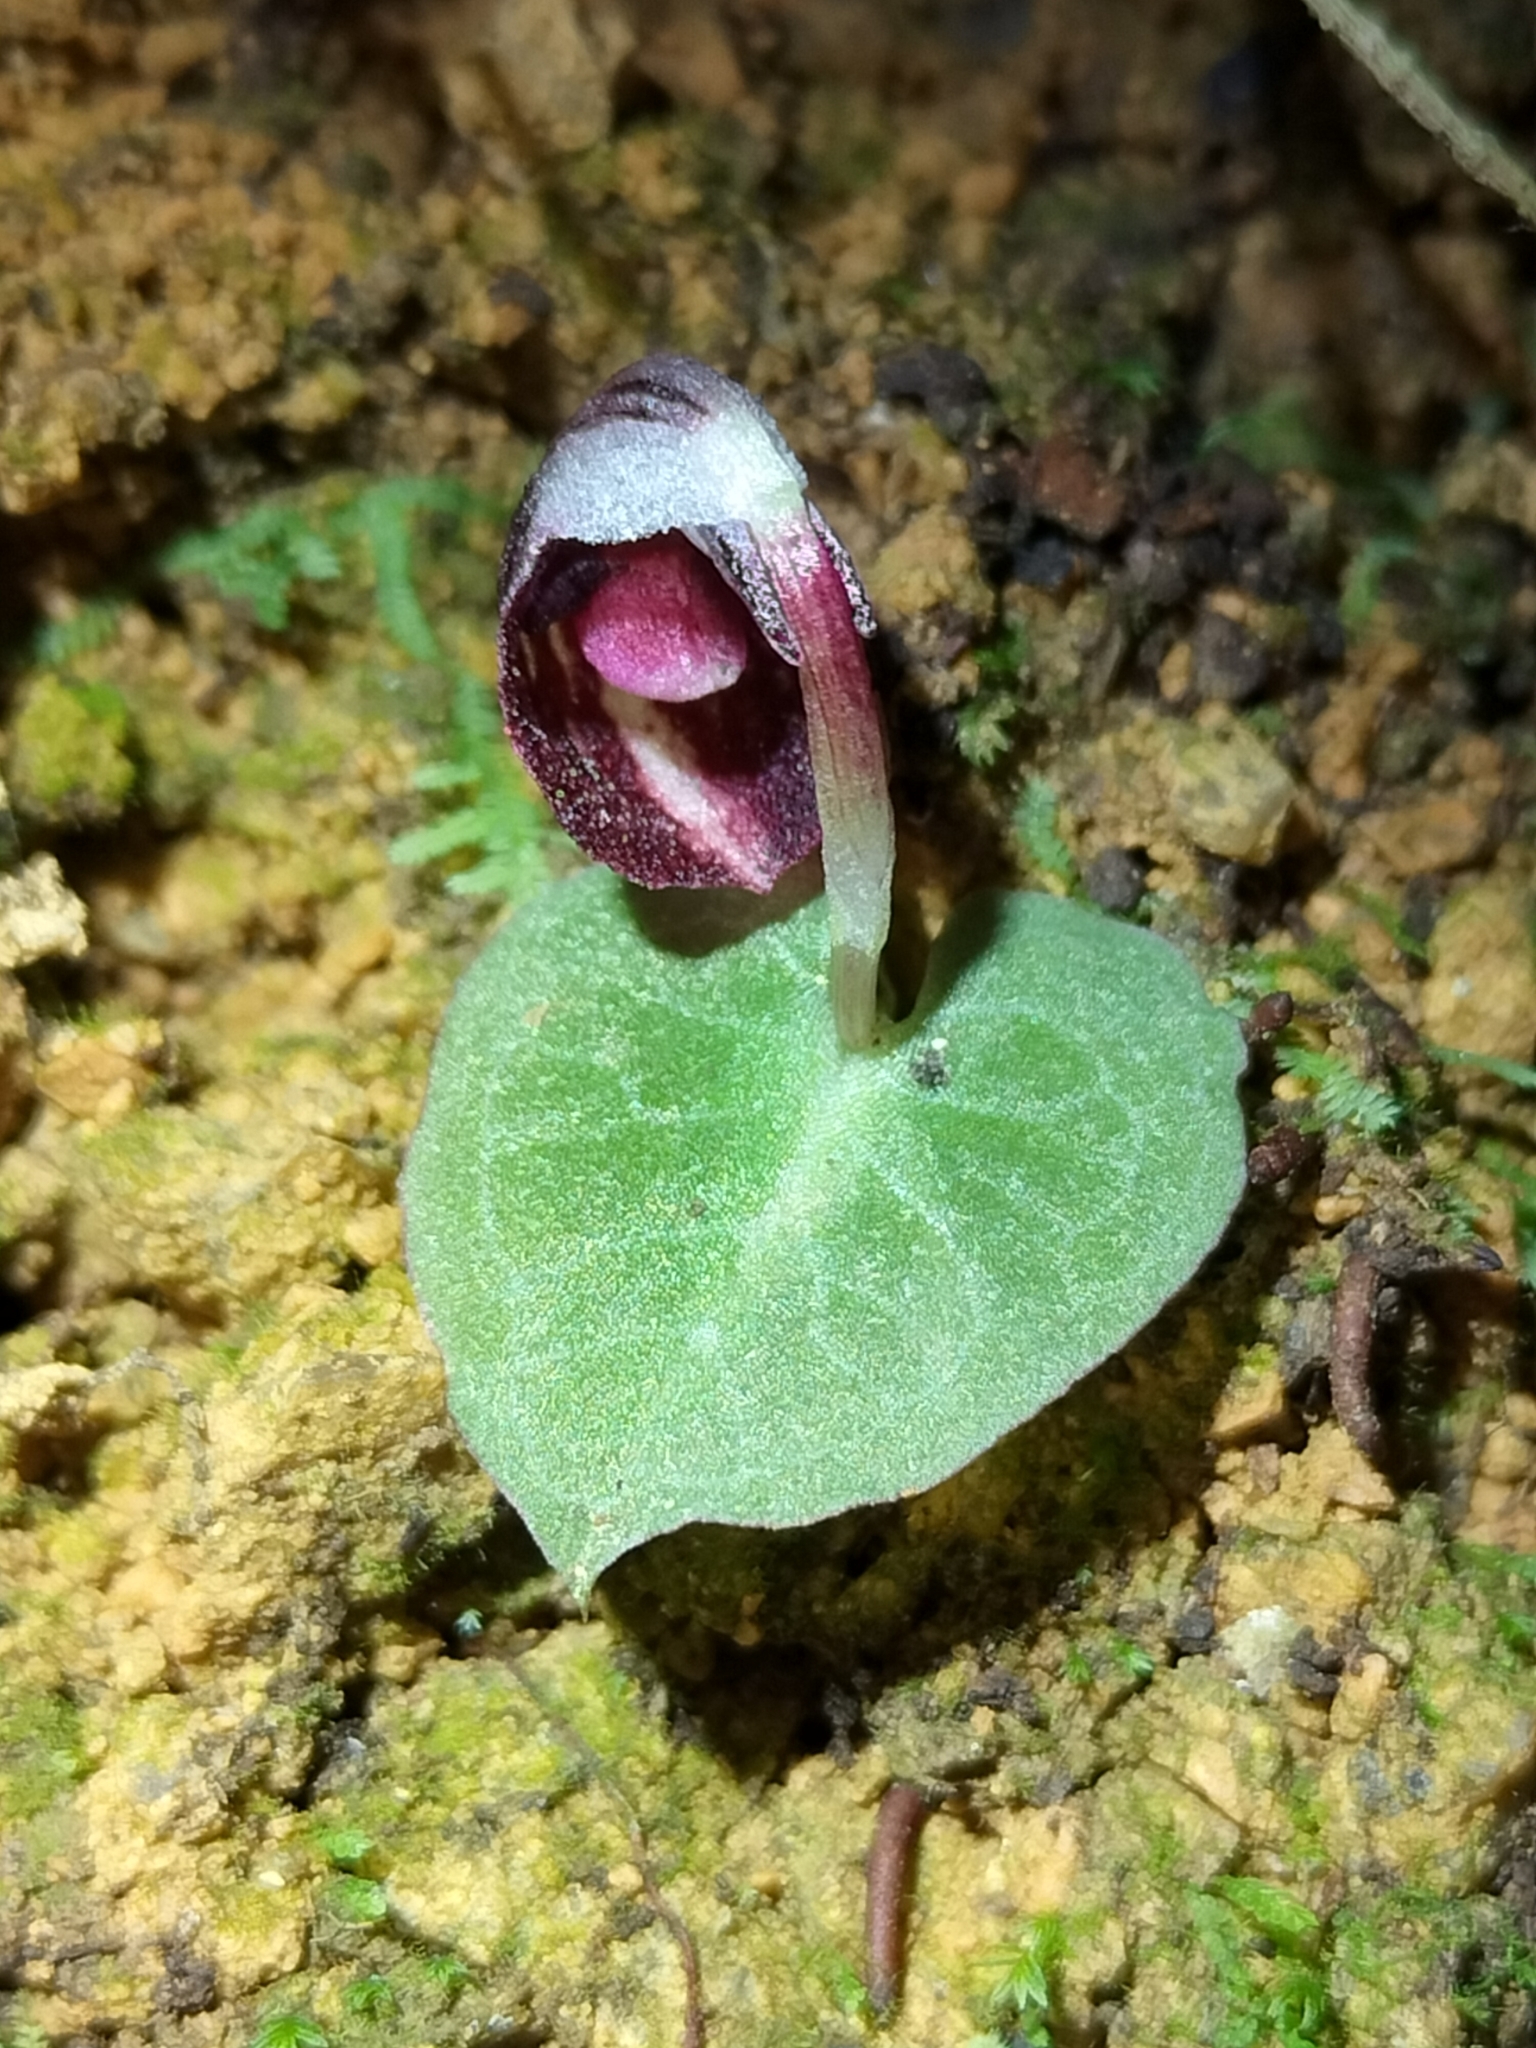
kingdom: Plantae
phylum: Tracheophyta
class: Liliopsida
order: Asparagales
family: Orchidaceae
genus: Corybas
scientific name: Corybas abellianus
